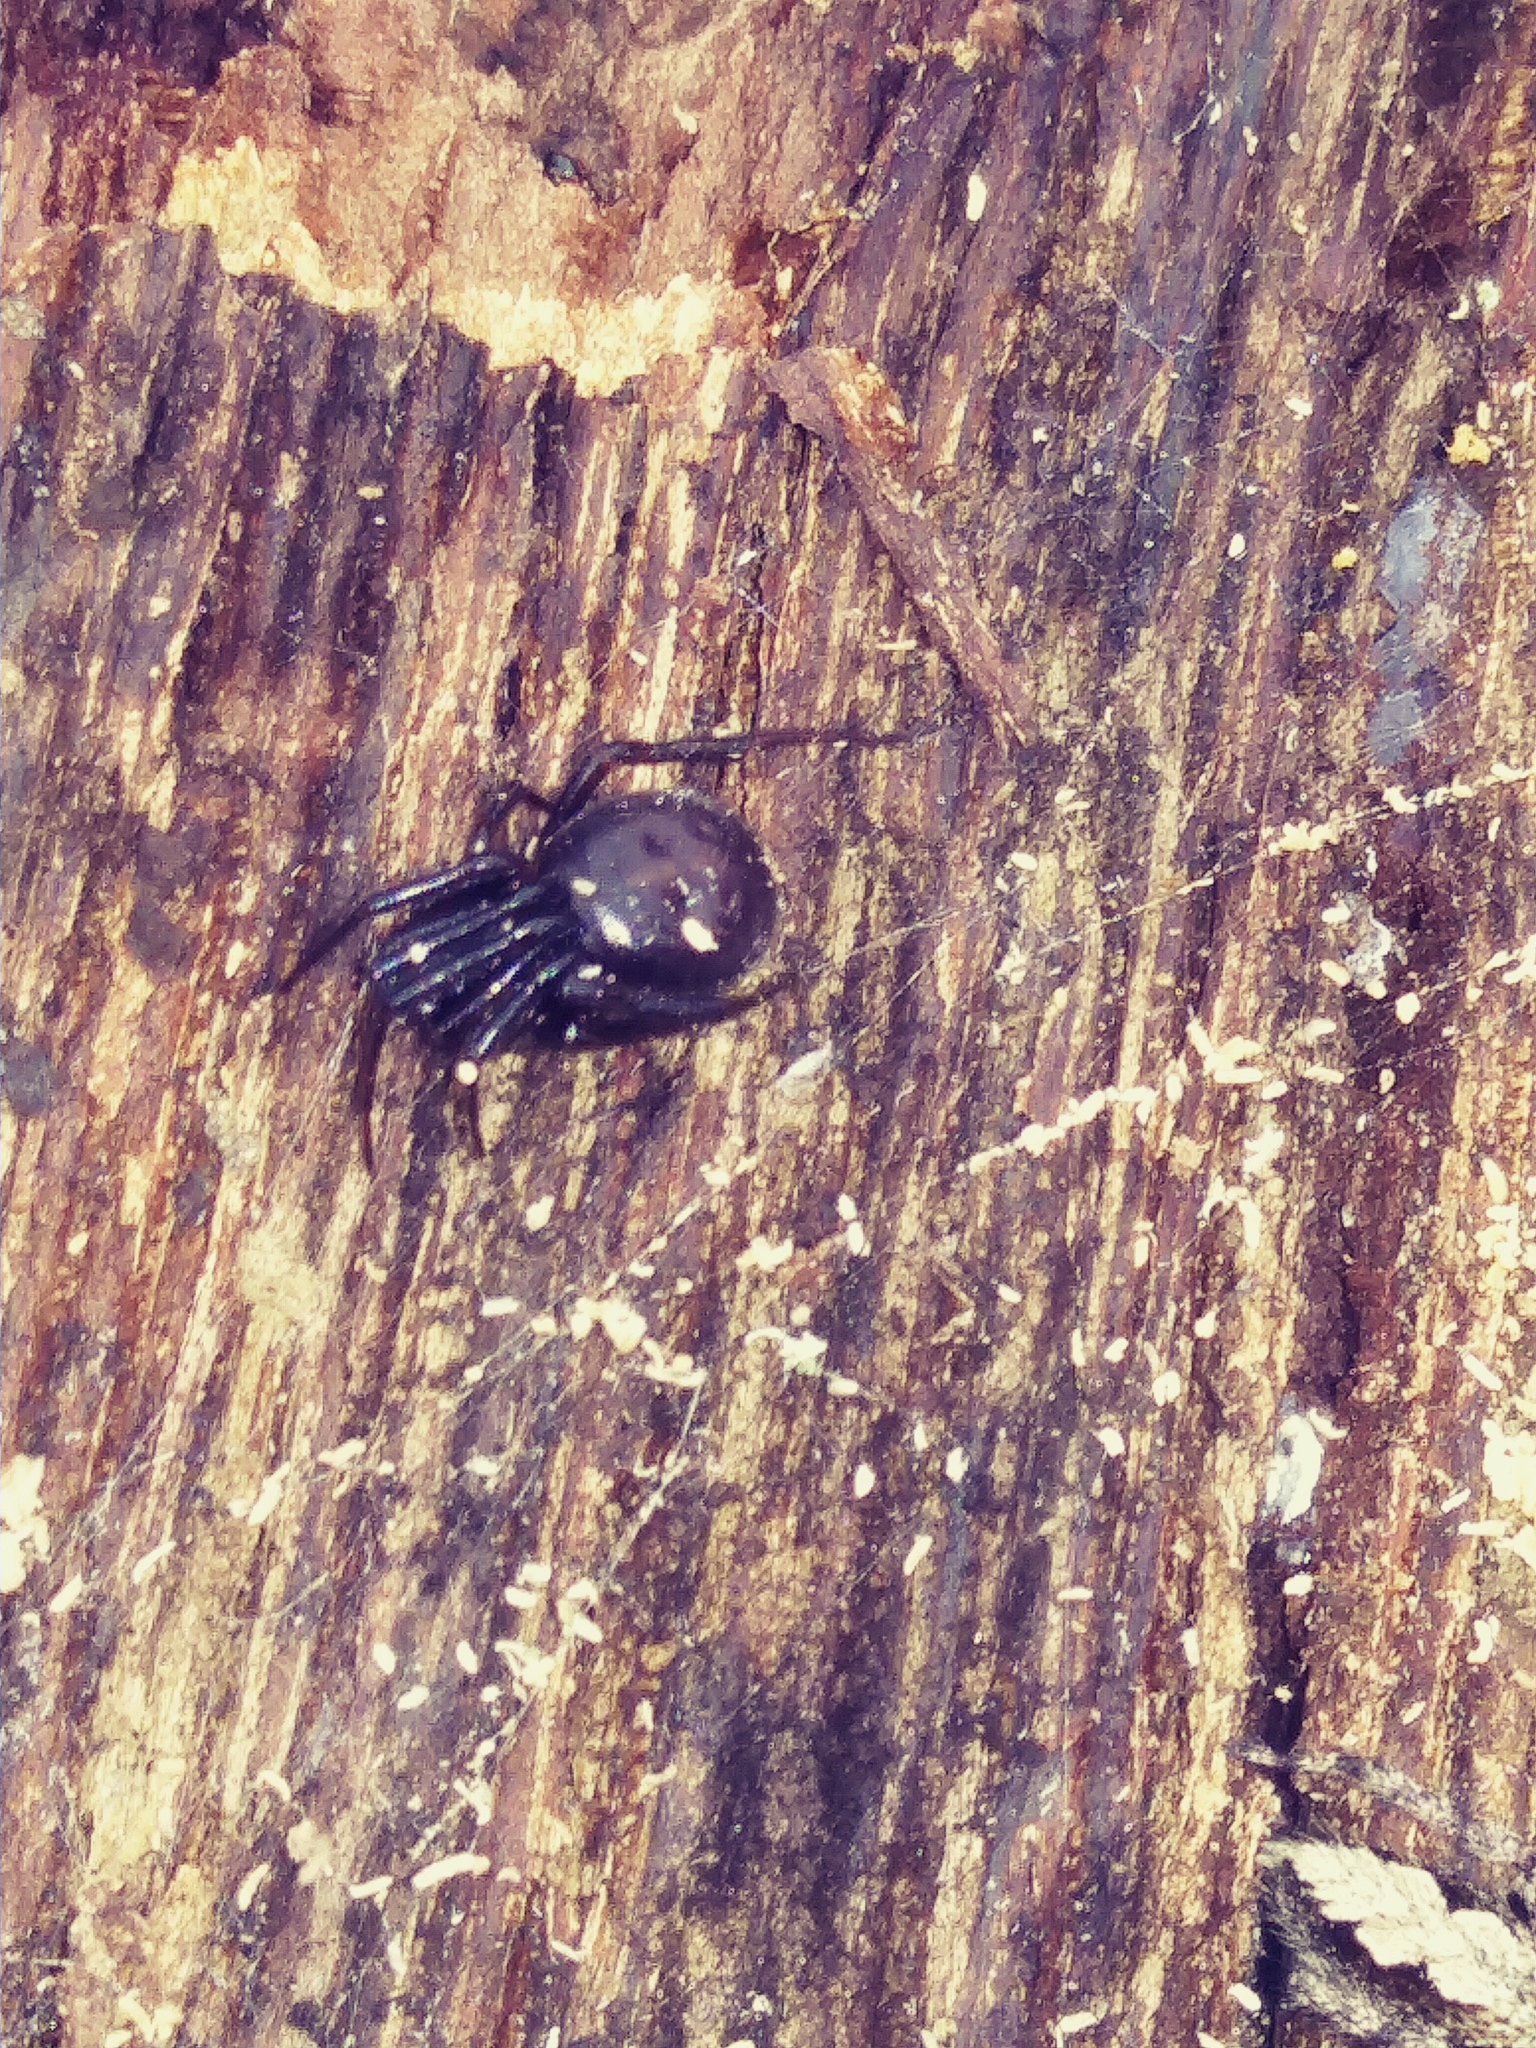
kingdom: Animalia
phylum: Arthropoda
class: Arachnida
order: Araneae
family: Theridiidae
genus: Steatoda
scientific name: Steatoda borealis
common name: Boreal combfoot
